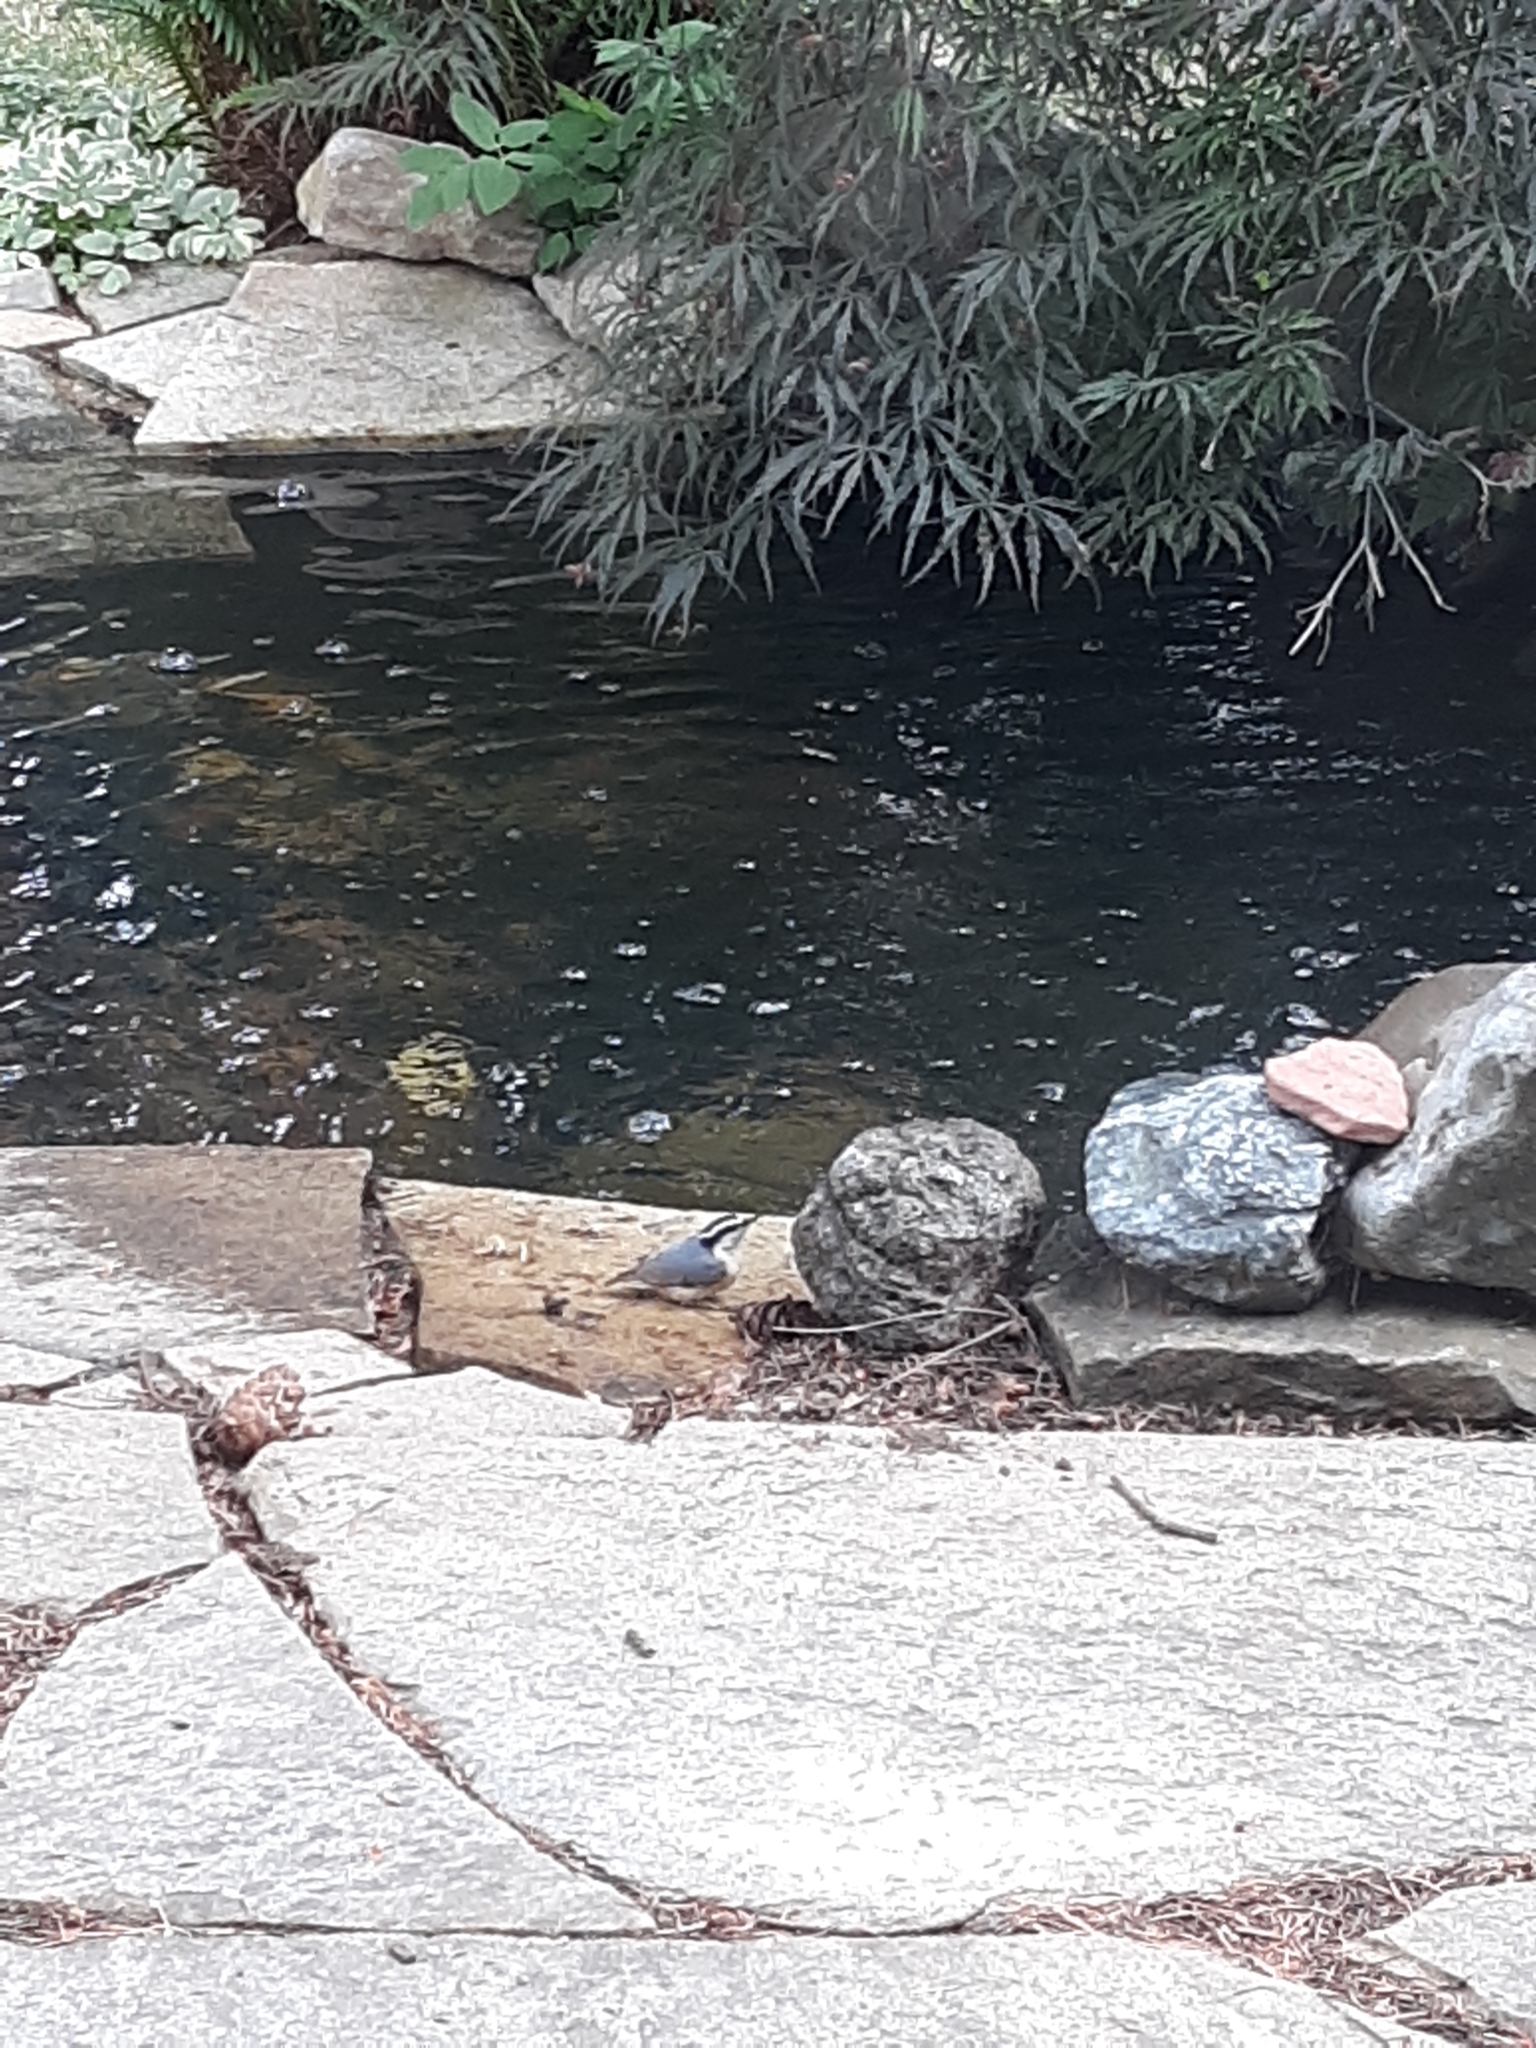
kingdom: Animalia
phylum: Chordata
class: Aves
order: Passeriformes
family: Sittidae
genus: Sitta
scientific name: Sitta canadensis
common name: Red-breasted nuthatch
